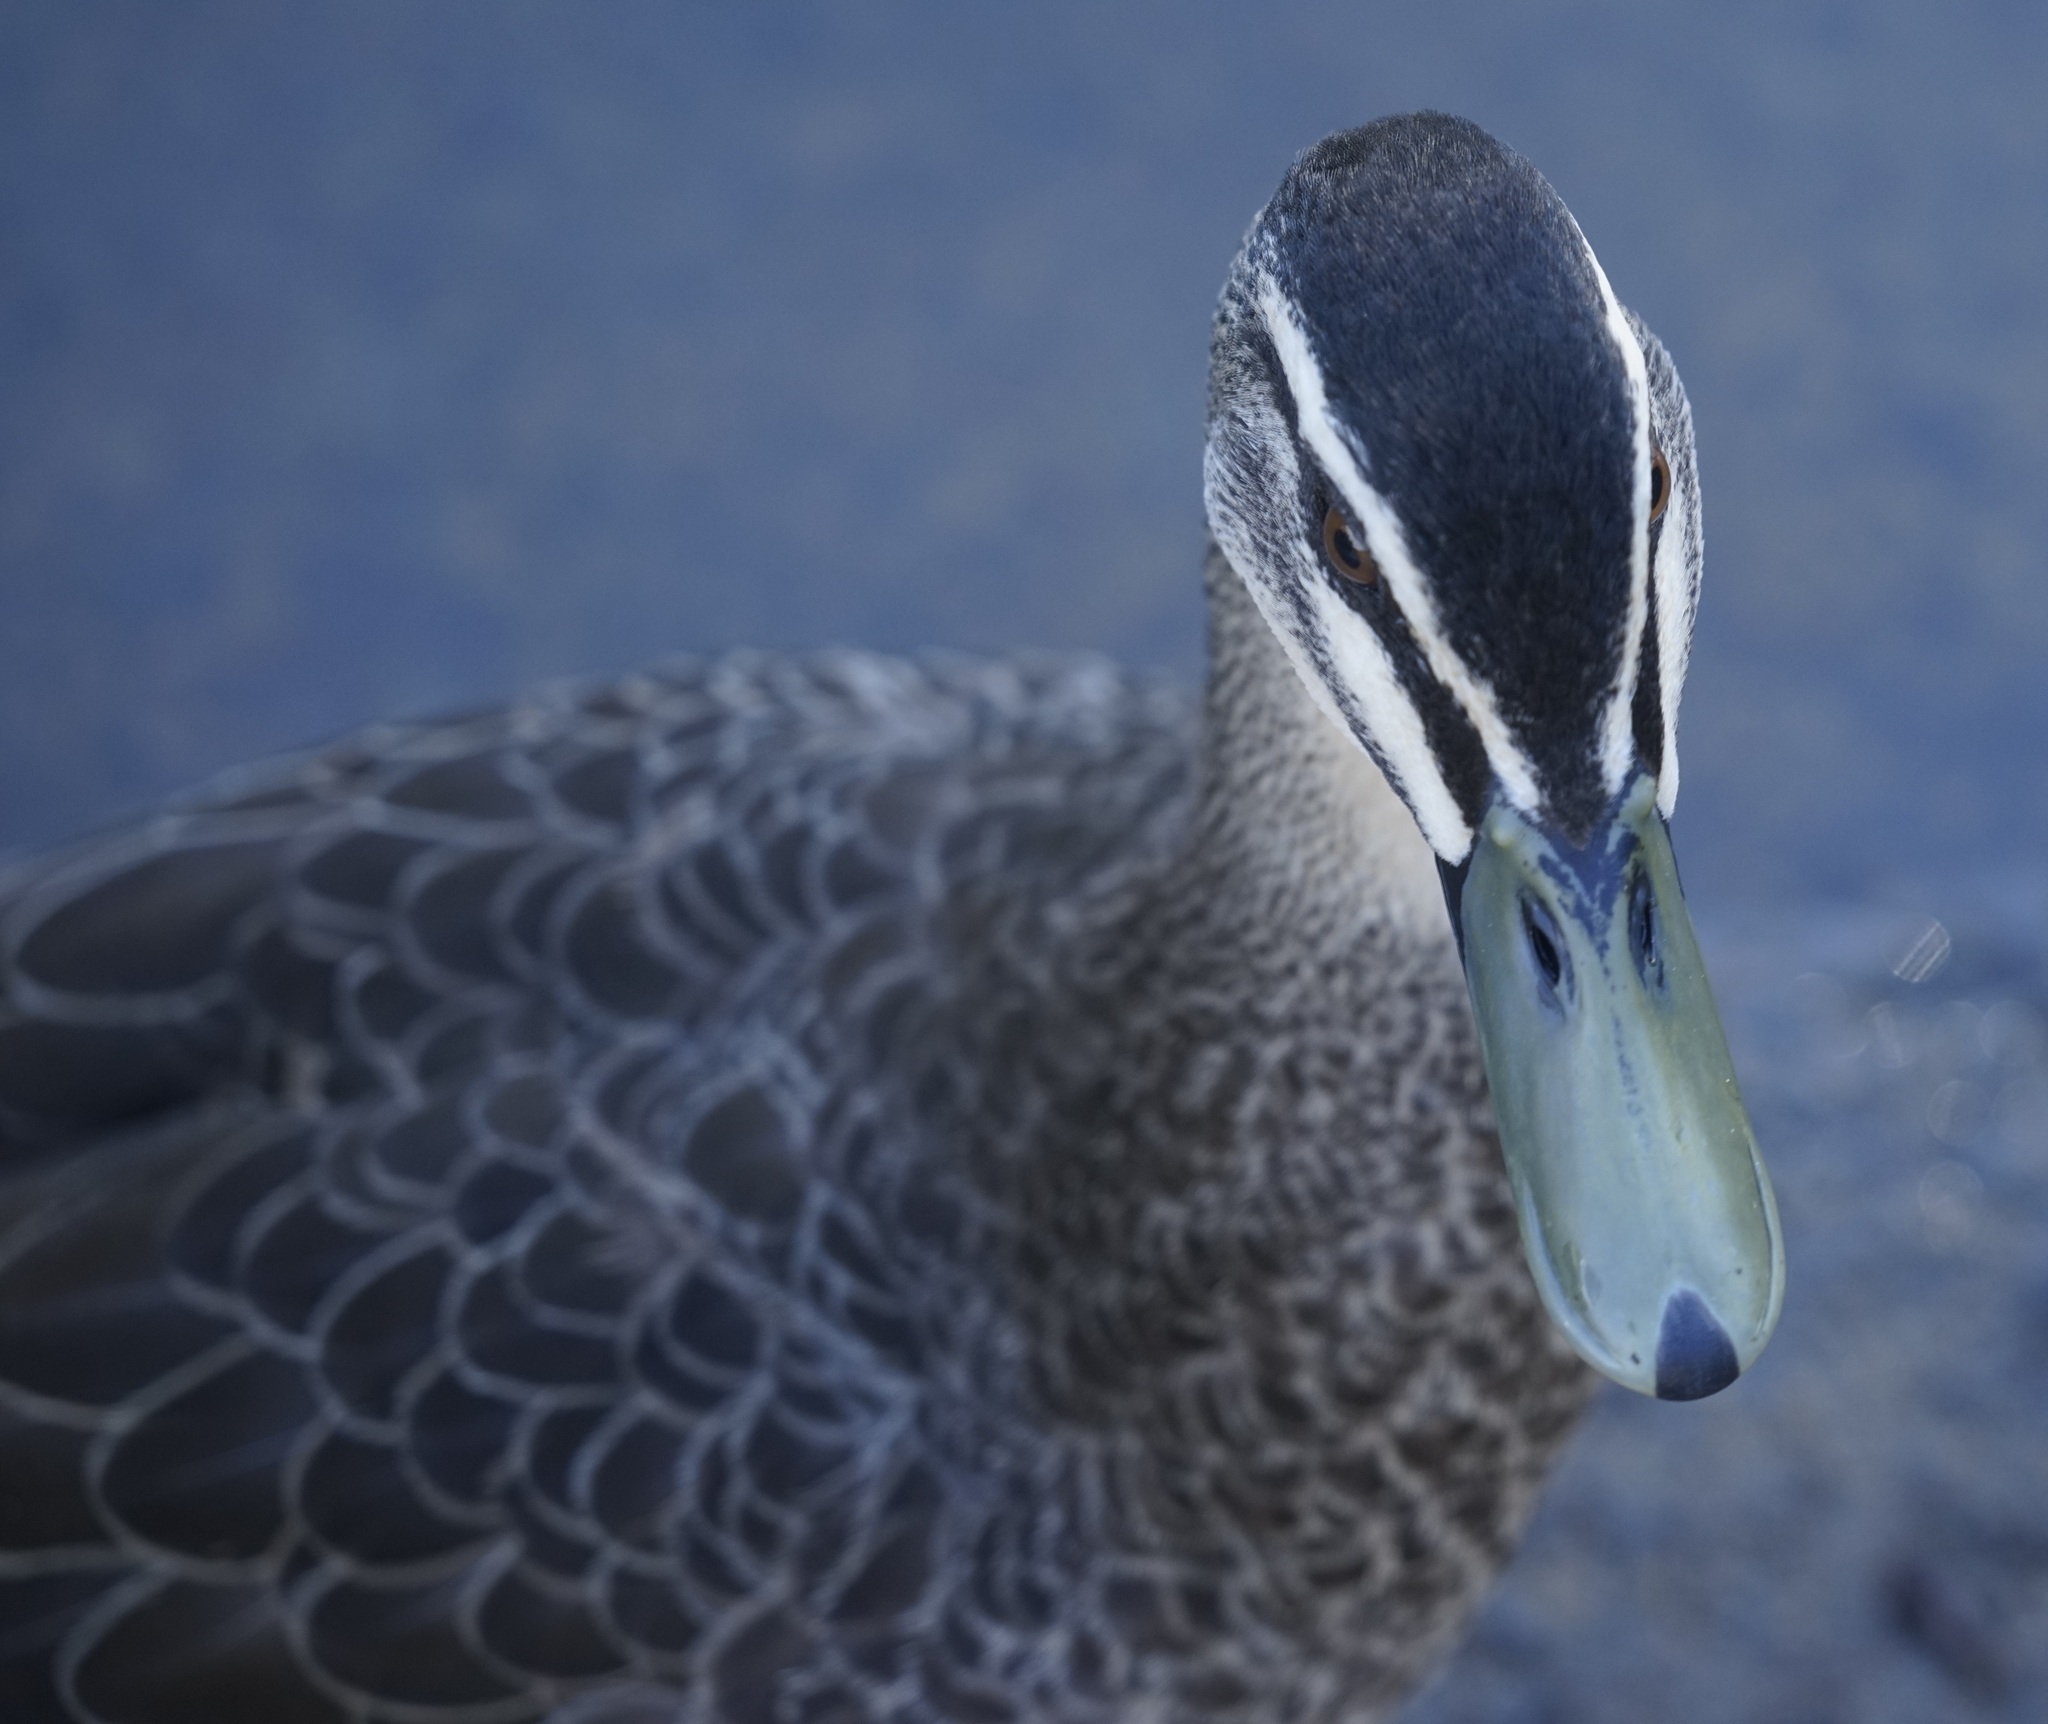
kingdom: Animalia
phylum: Chordata
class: Aves
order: Anseriformes
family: Anatidae
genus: Anas
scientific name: Anas
